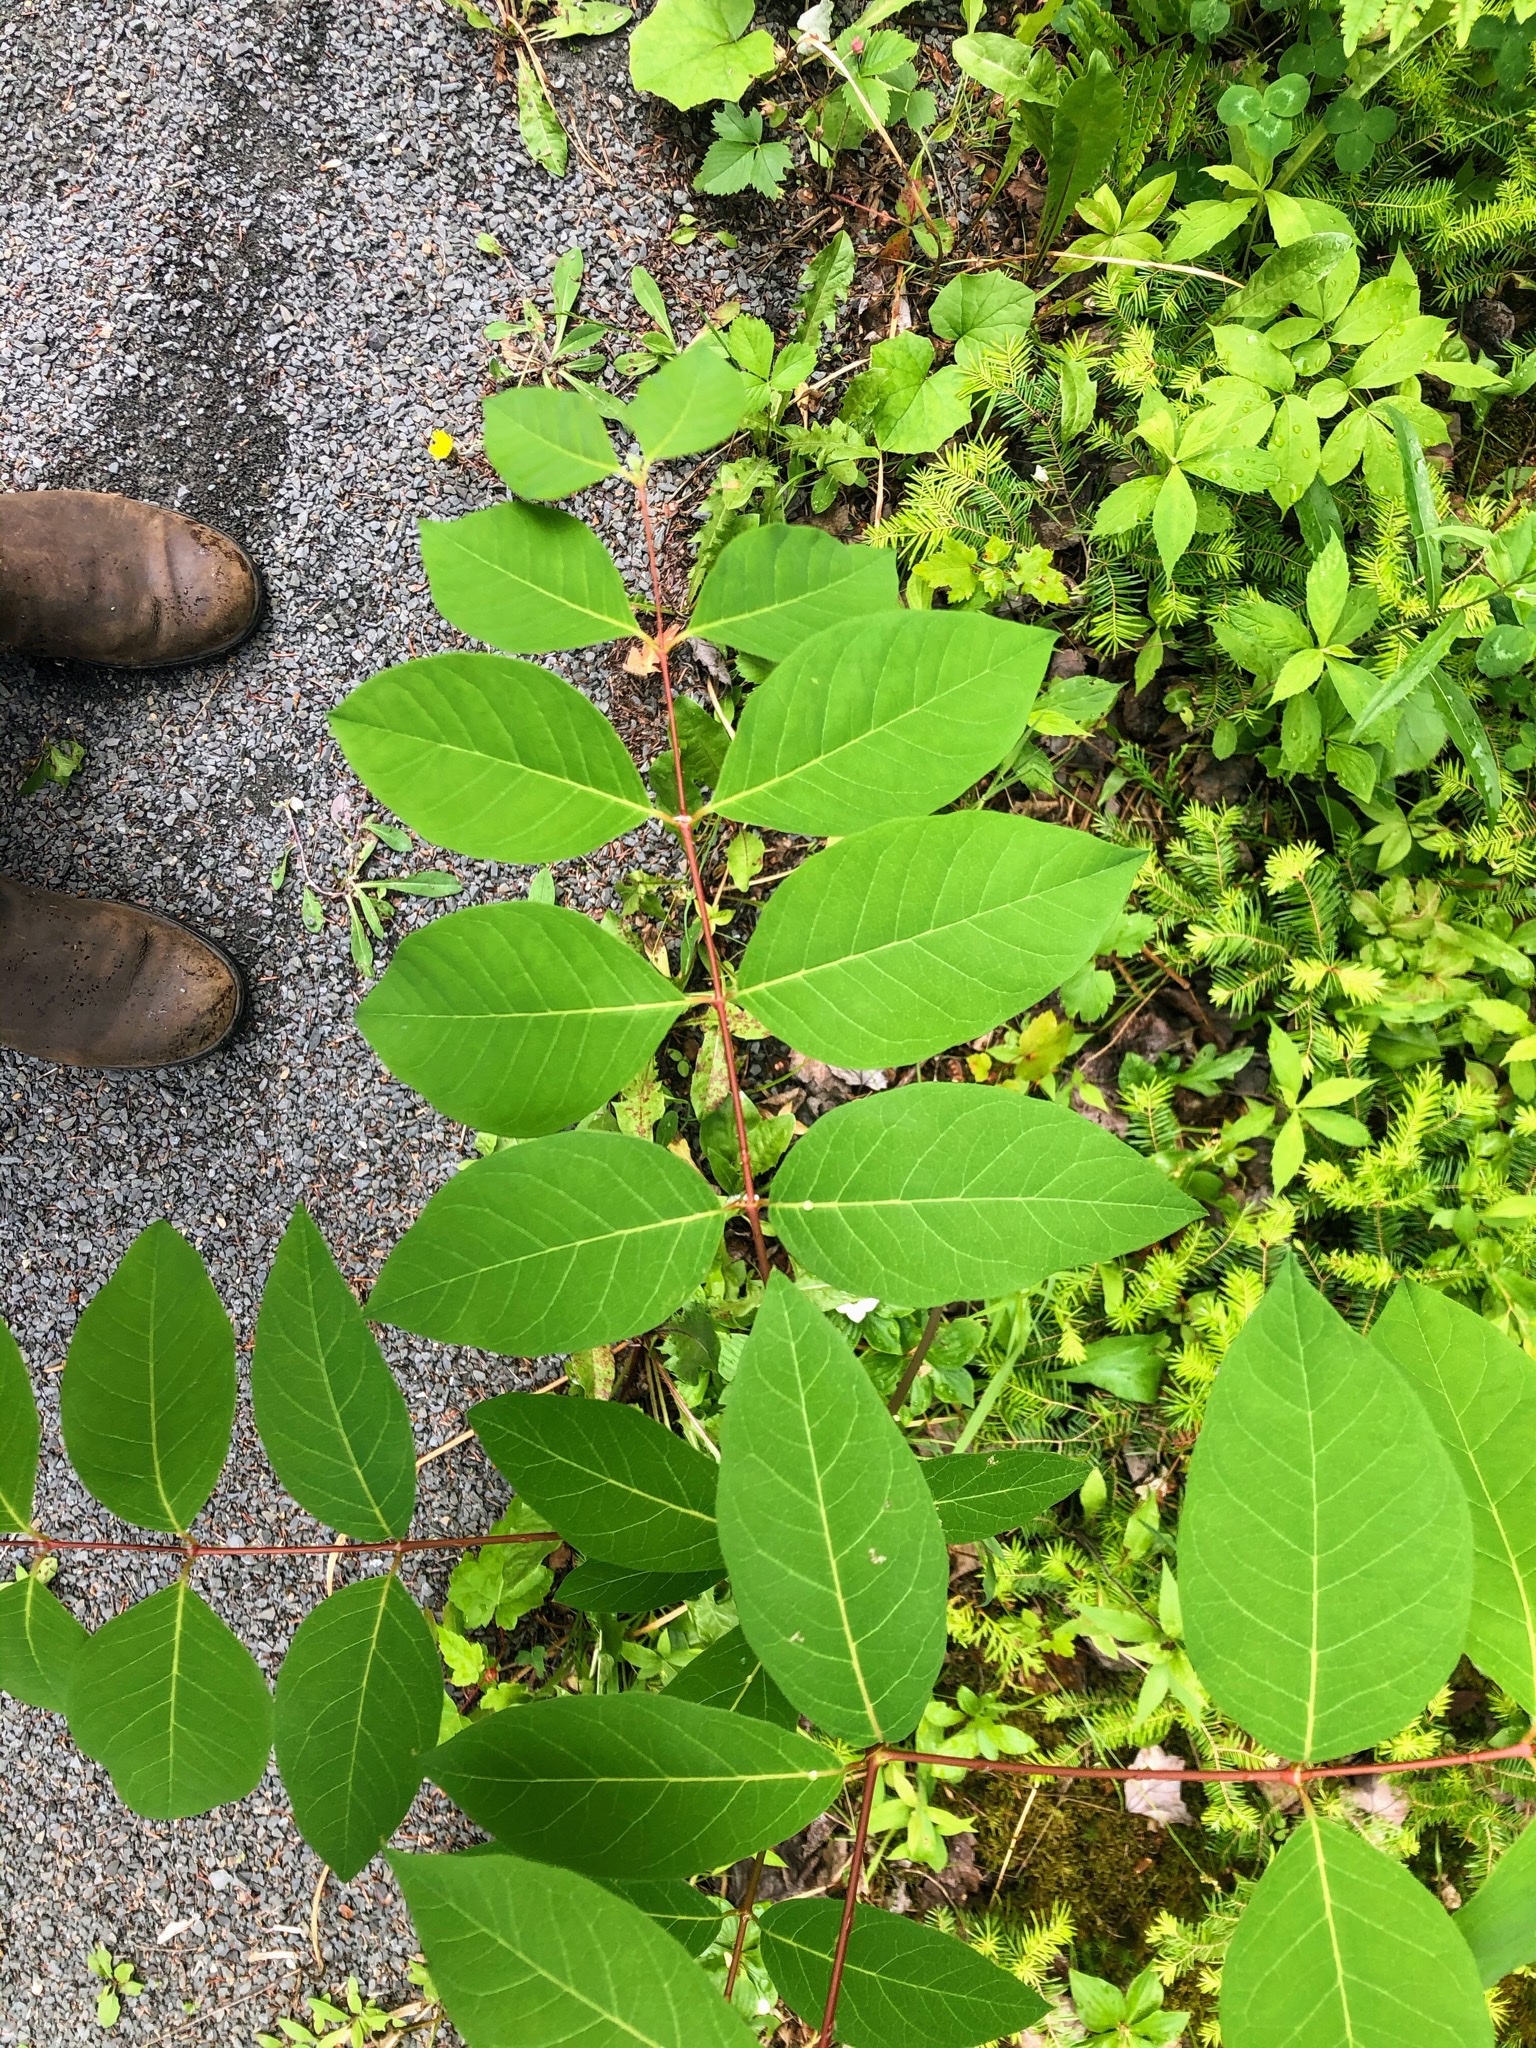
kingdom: Plantae
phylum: Tracheophyta
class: Magnoliopsida
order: Gentianales
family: Apocynaceae
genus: Apocynum
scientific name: Apocynum androsaemifolium
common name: Spreading dogbane
